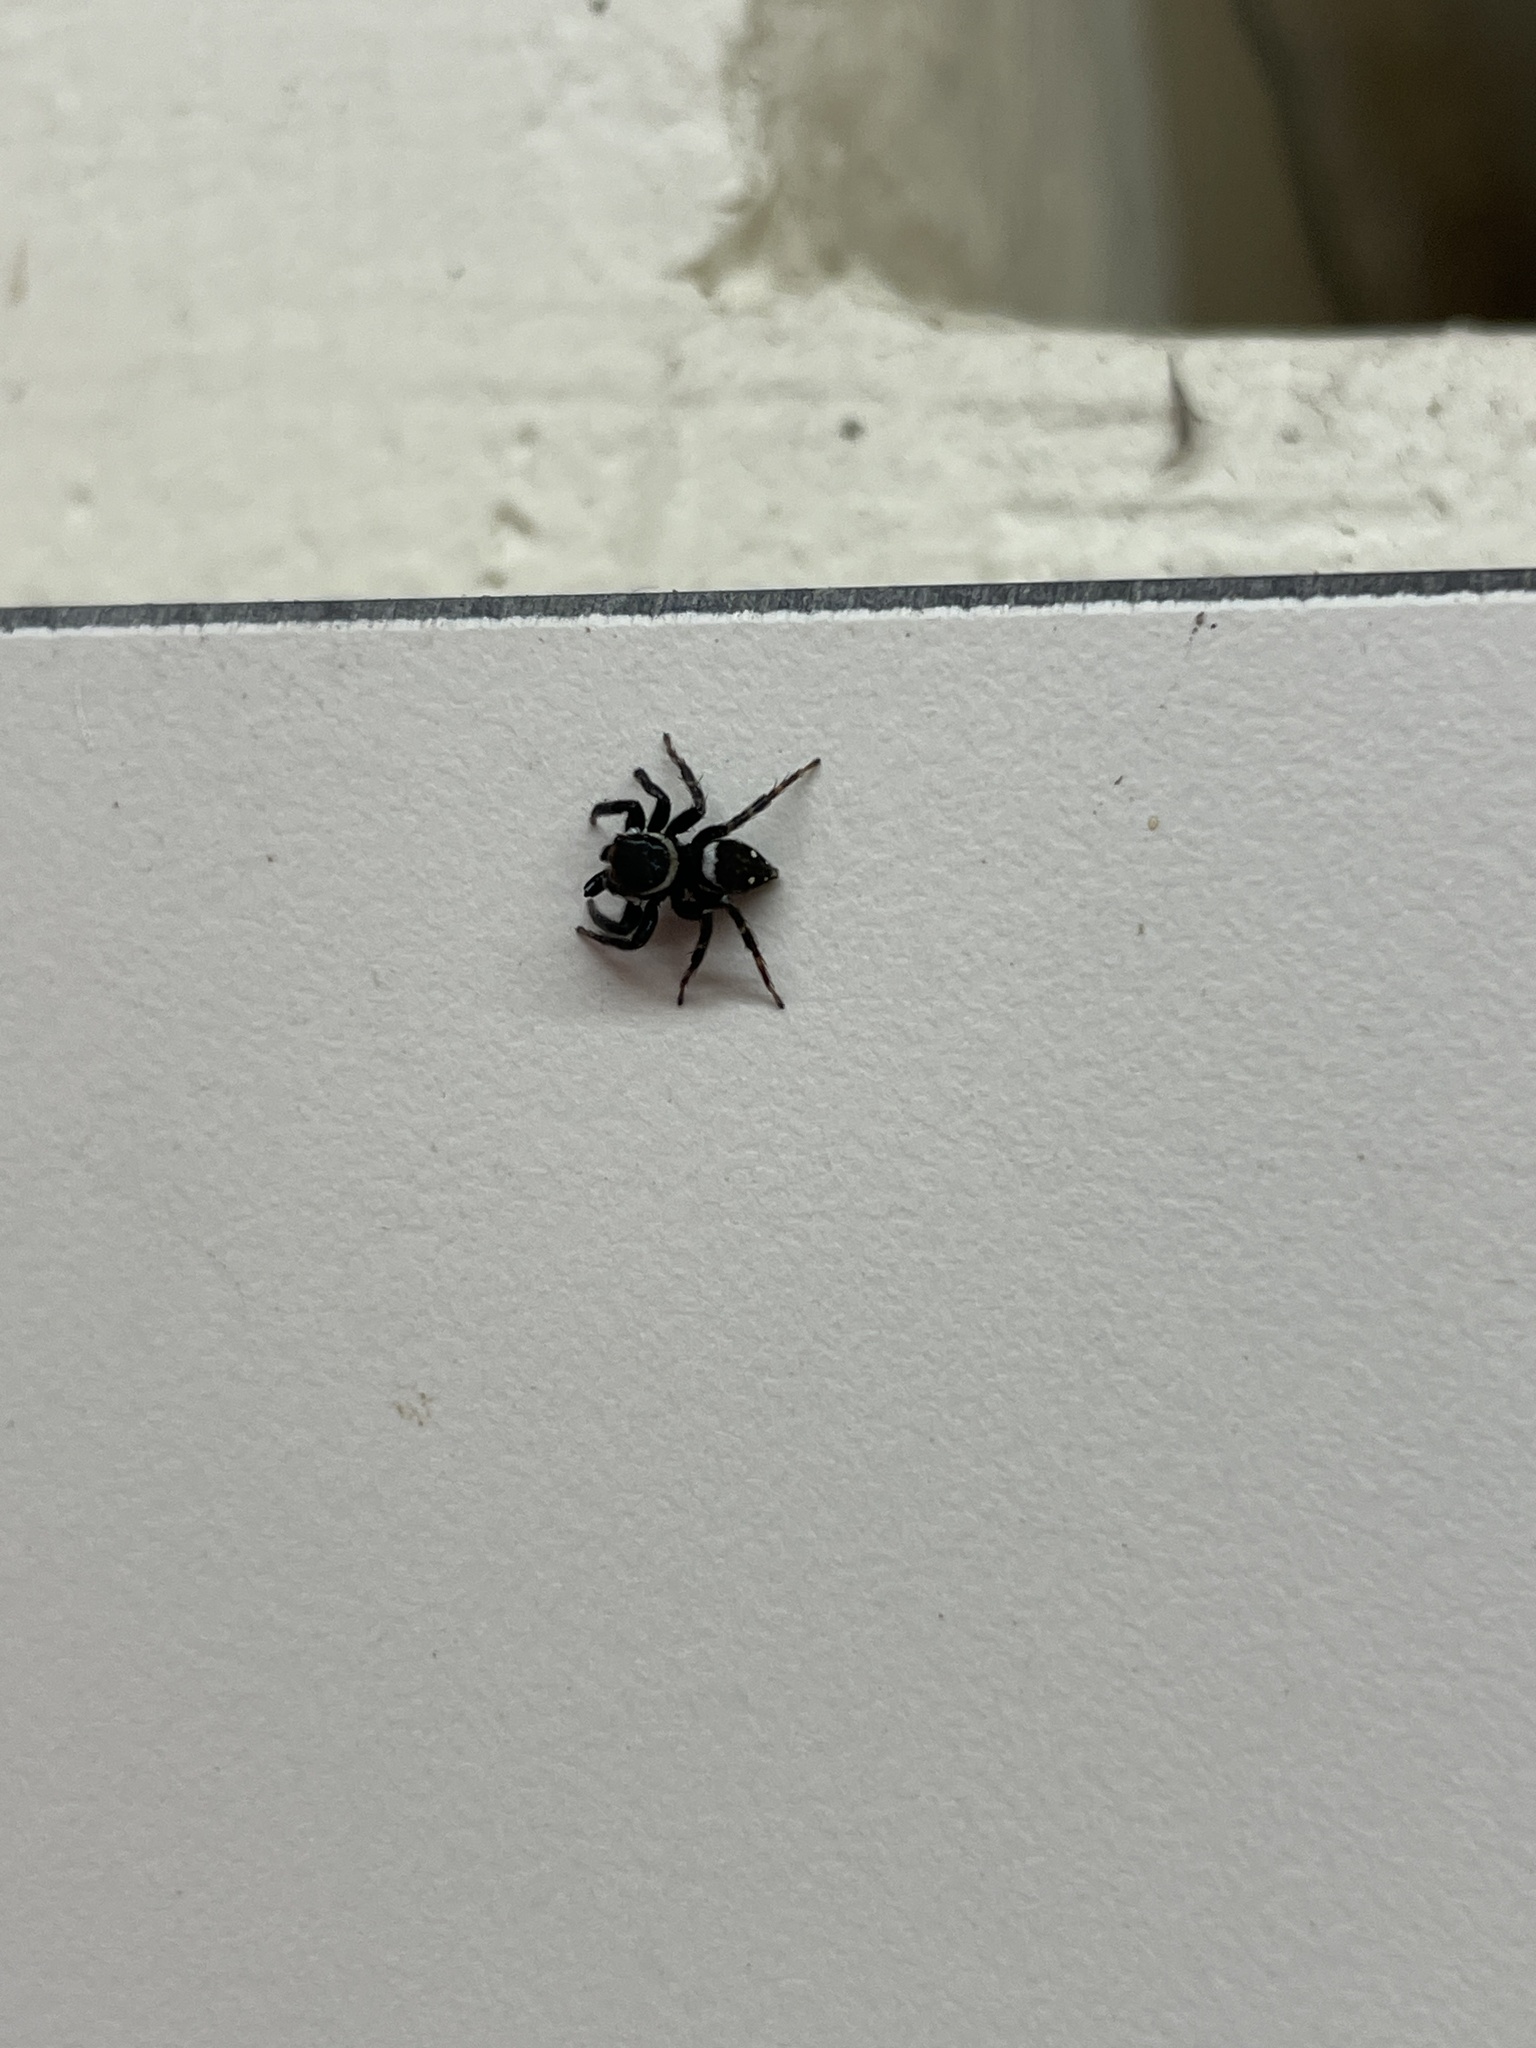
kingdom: Animalia
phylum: Arthropoda
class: Arachnida
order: Araneae
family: Salticidae
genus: Hasarius
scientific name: Hasarius adansoni
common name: Jumping spider
